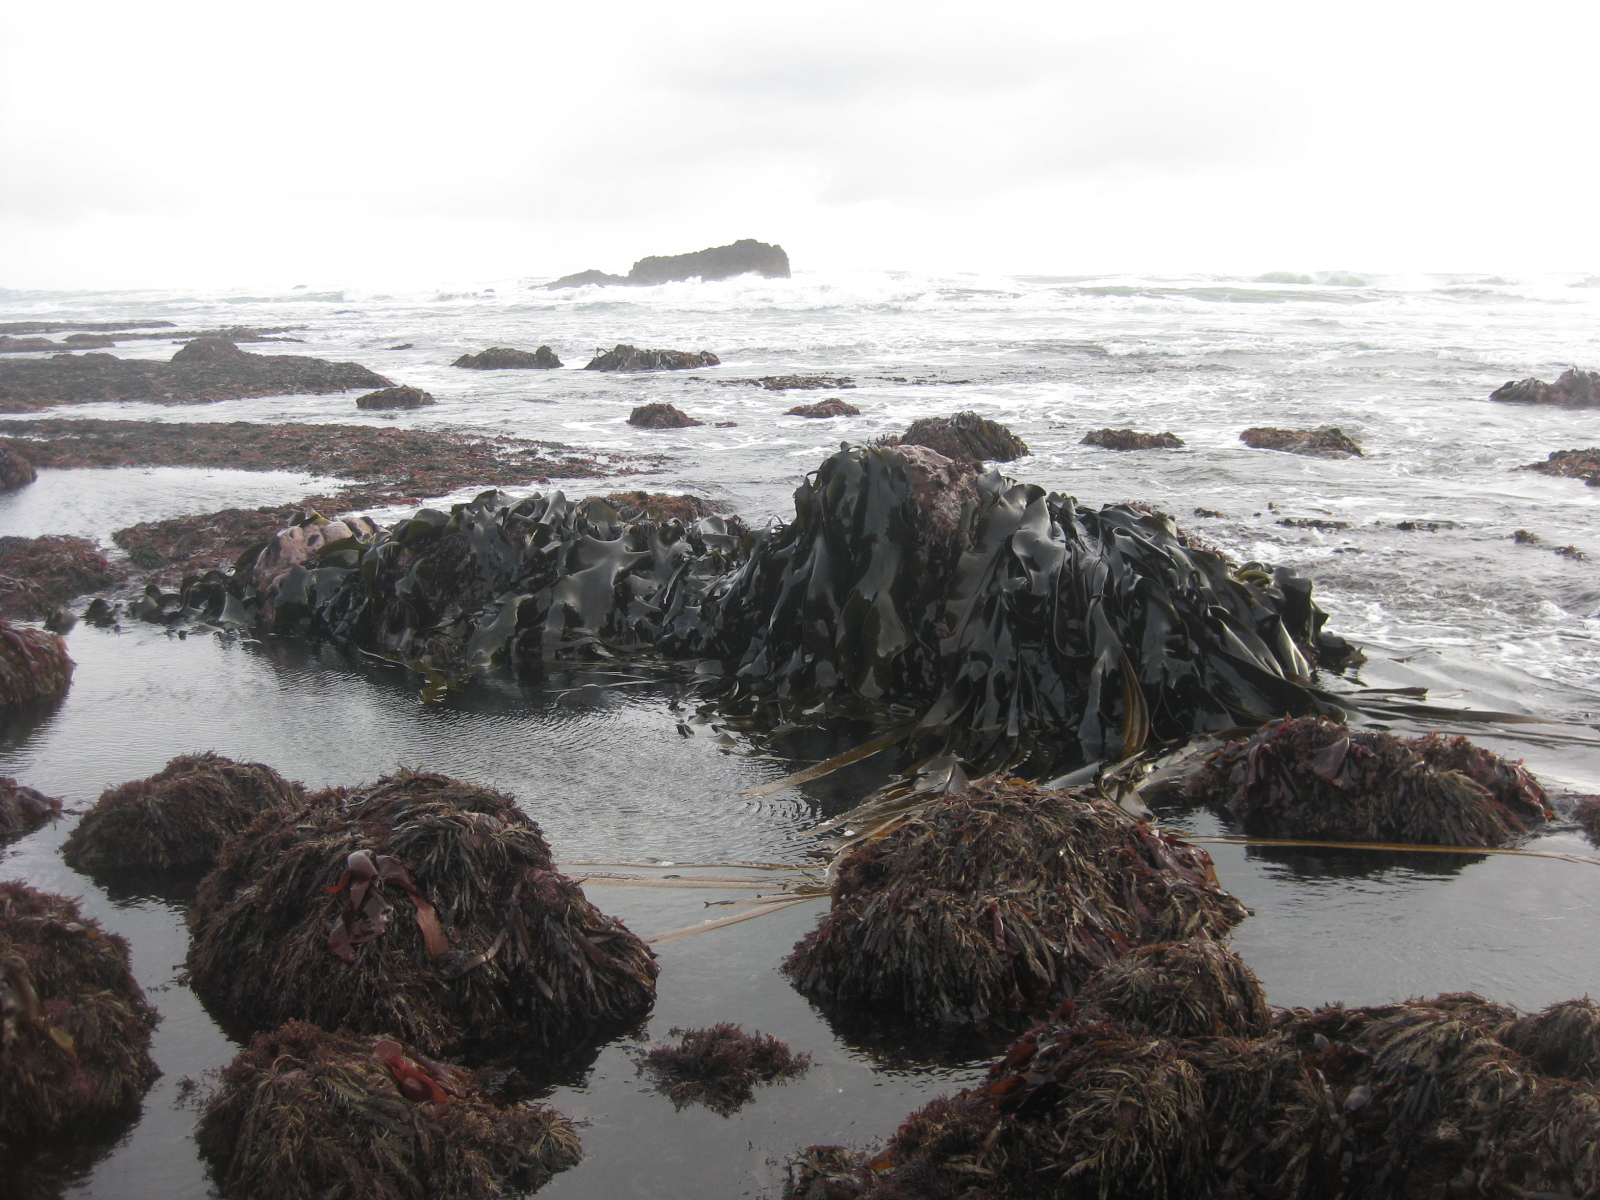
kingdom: Chromista
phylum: Ochrophyta
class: Phaeophyceae
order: Fucales
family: Durvillaeaceae
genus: Durvillaea
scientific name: Durvillaea antarctica
